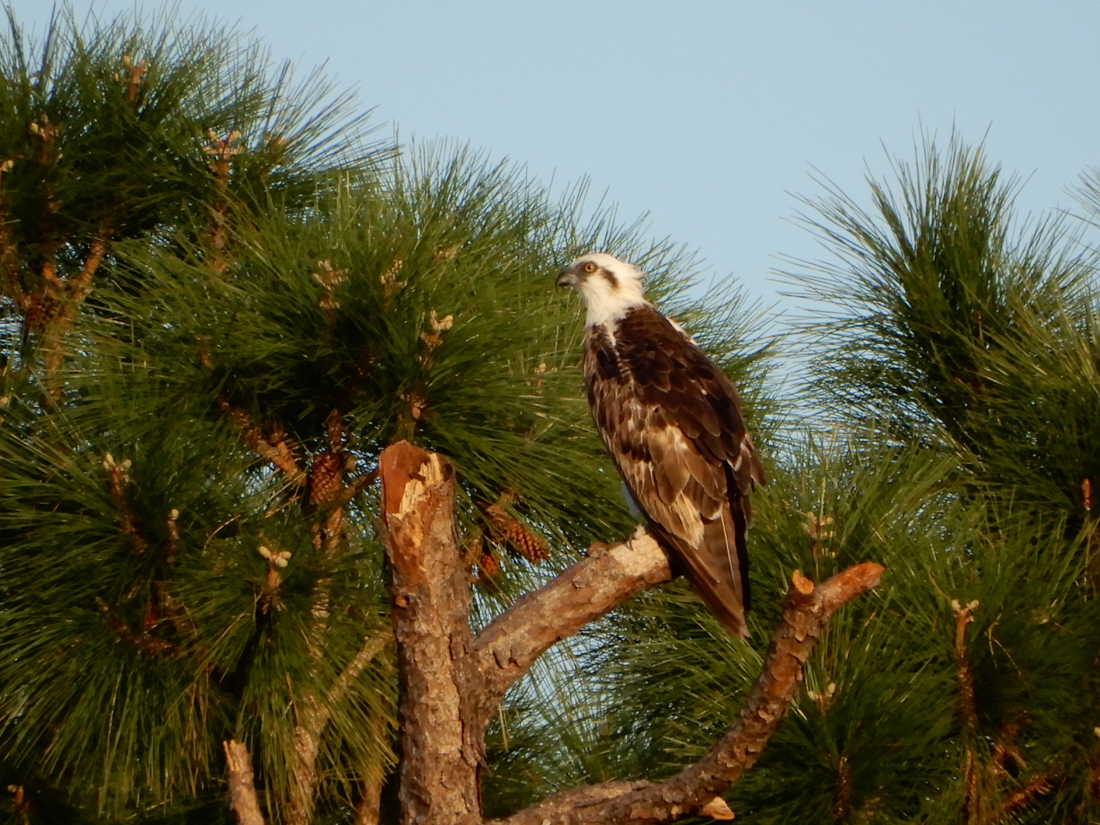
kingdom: Animalia
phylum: Chordata
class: Aves
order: Accipitriformes
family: Pandionidae
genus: Pandion
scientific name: Pandion haliaetus
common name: Osprey
